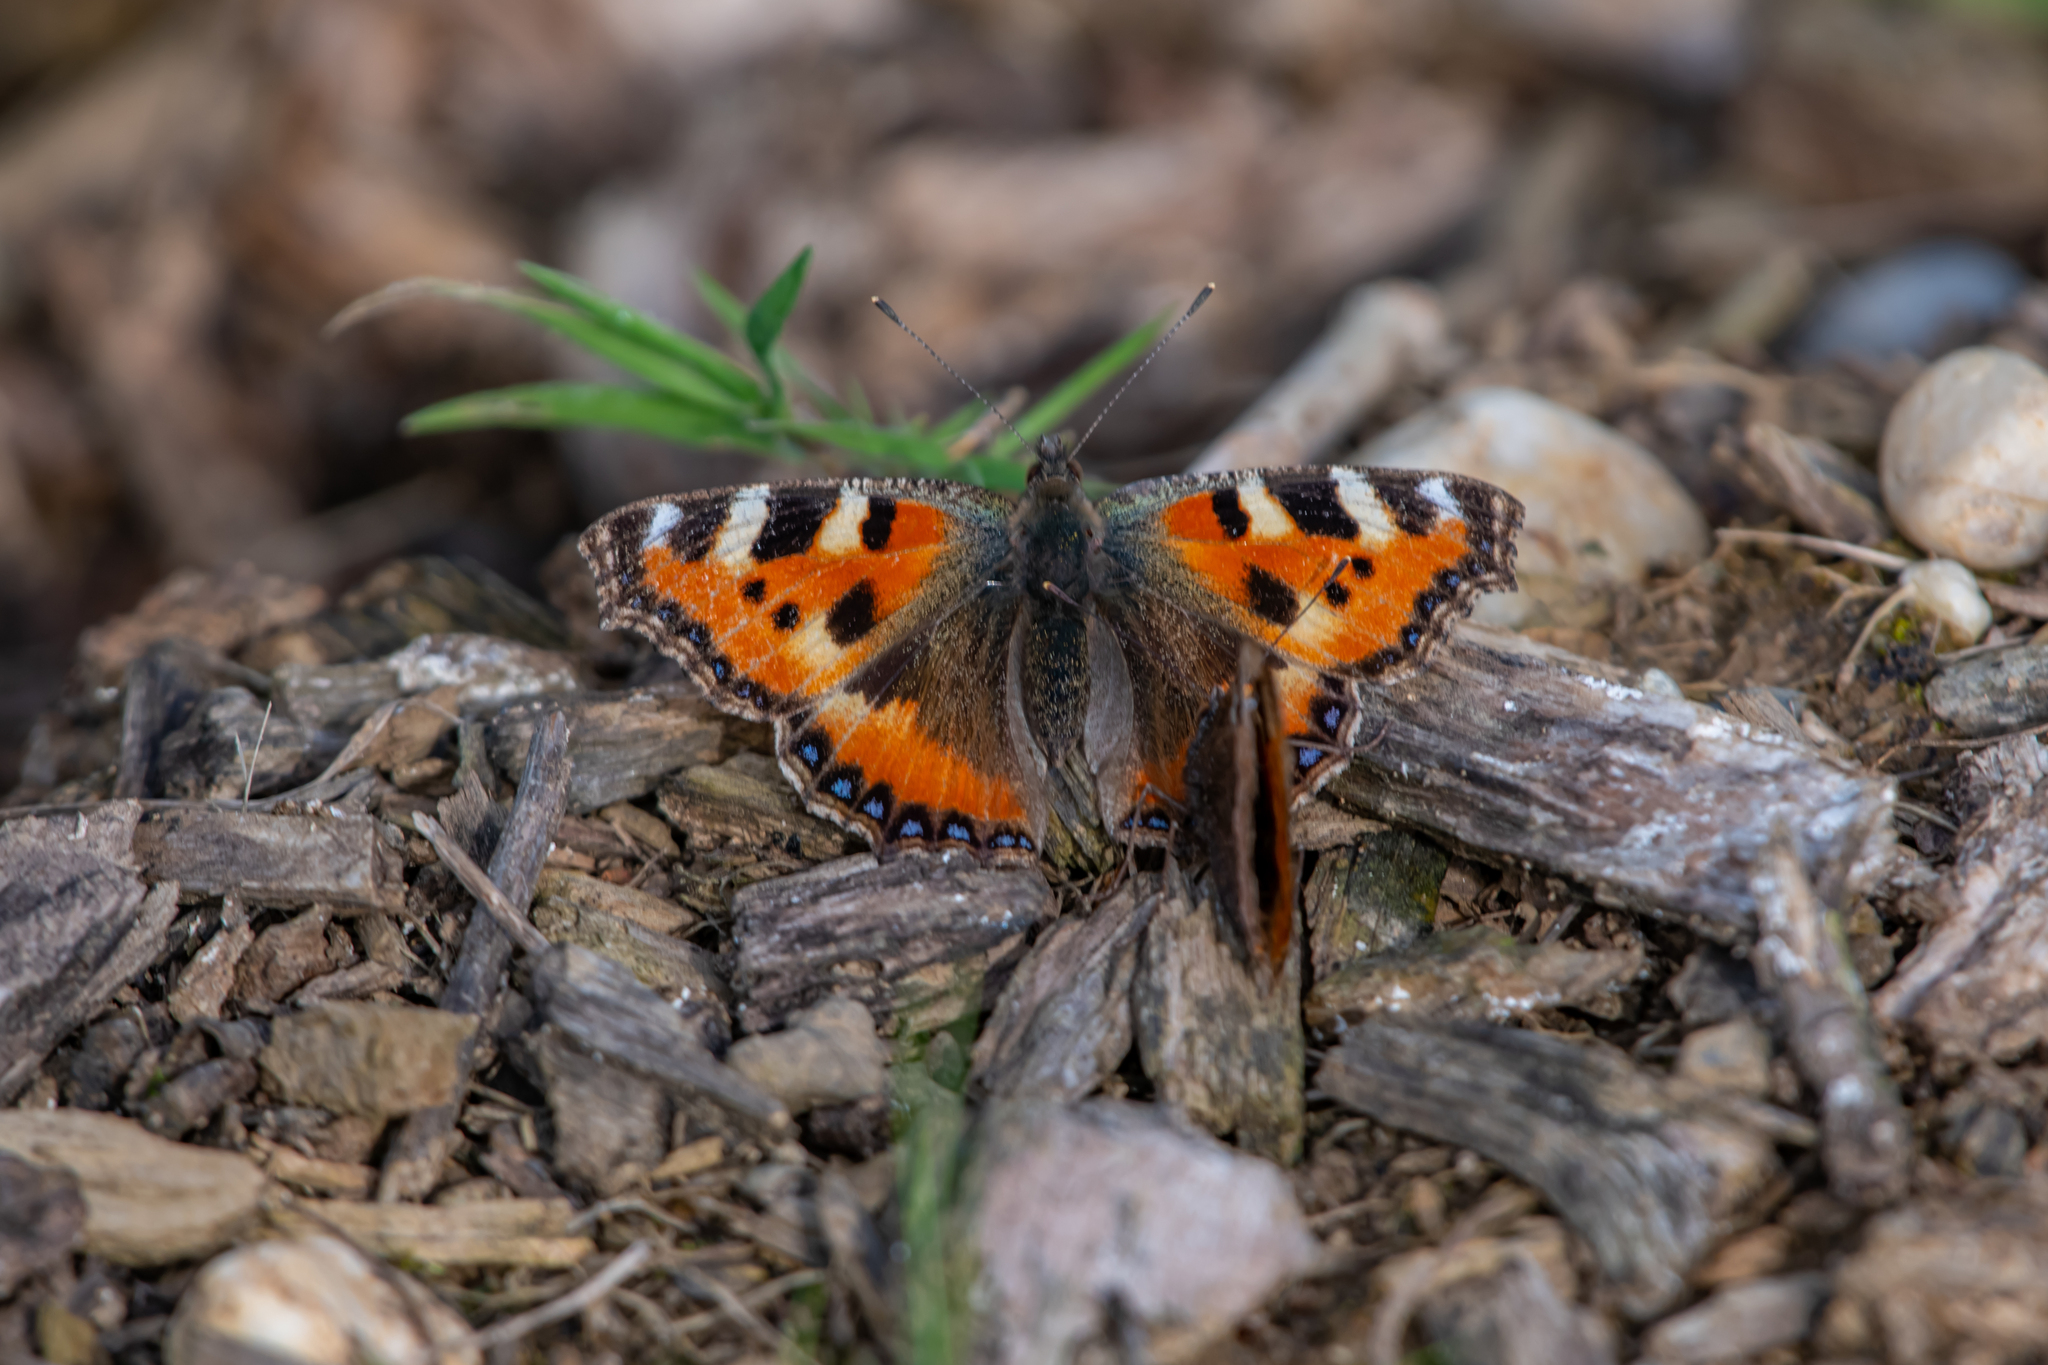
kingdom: Animalia
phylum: Arthropoda
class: Insecta
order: Lepidoptera
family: Nymphalidae
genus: Aglais
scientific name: Aglais urticae
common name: Small tortoiseshell
